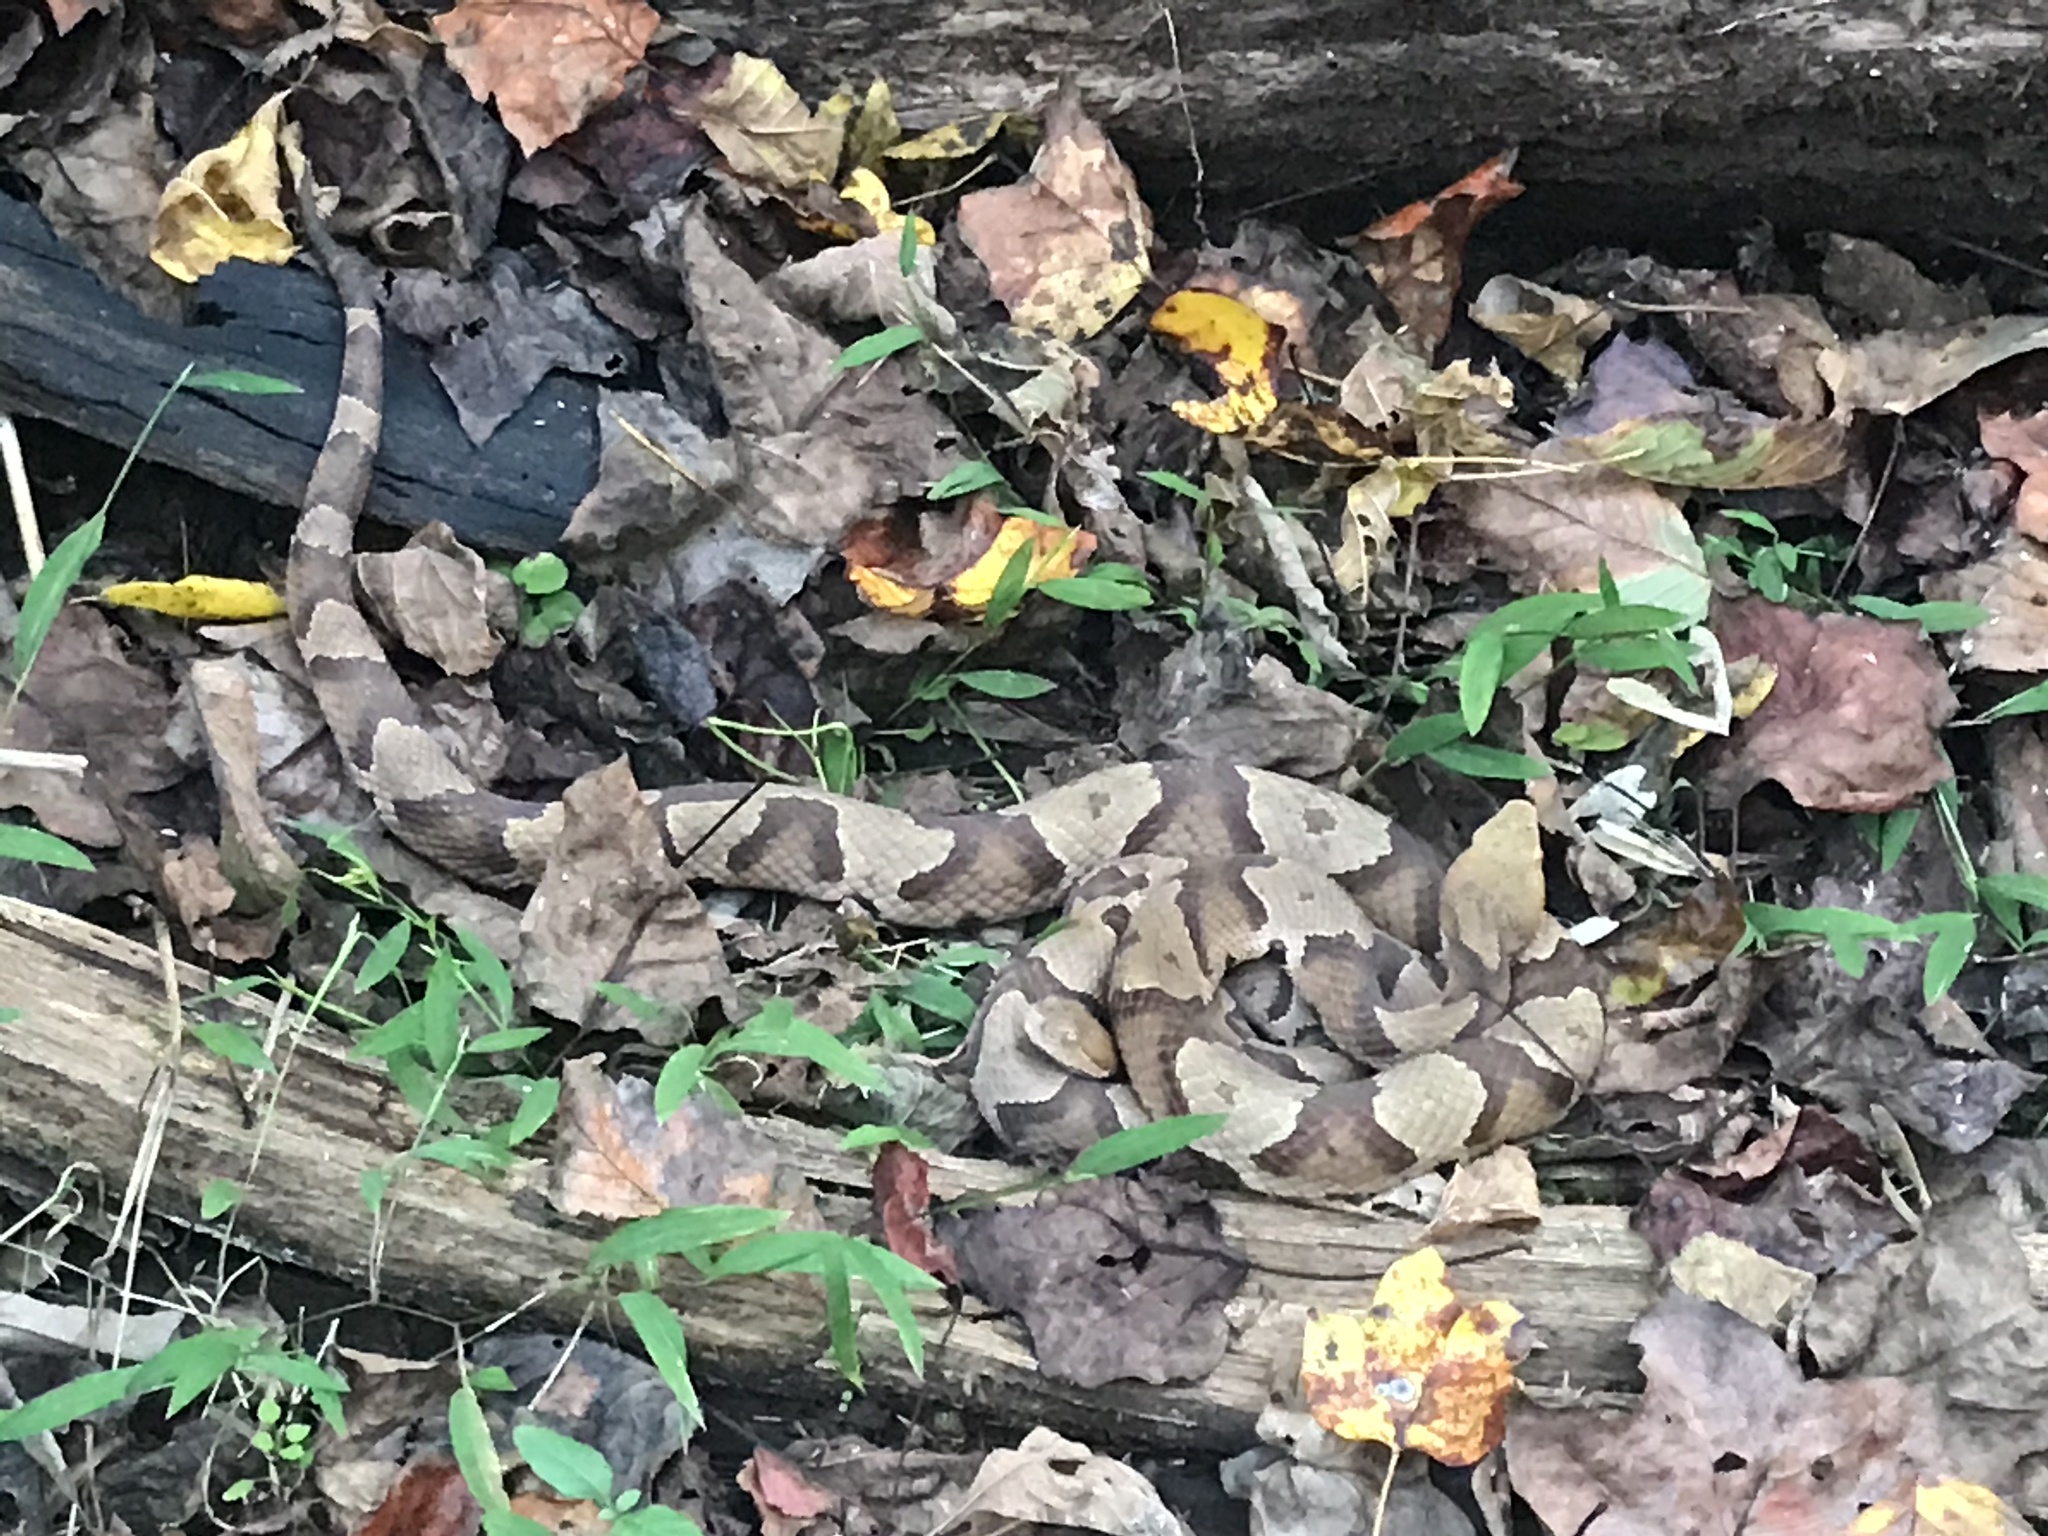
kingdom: Animalia
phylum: Chordata
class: Squamata
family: Viperidae
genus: Agkistrodon
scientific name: Agkistrodon contortrix
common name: Northern copperhead
